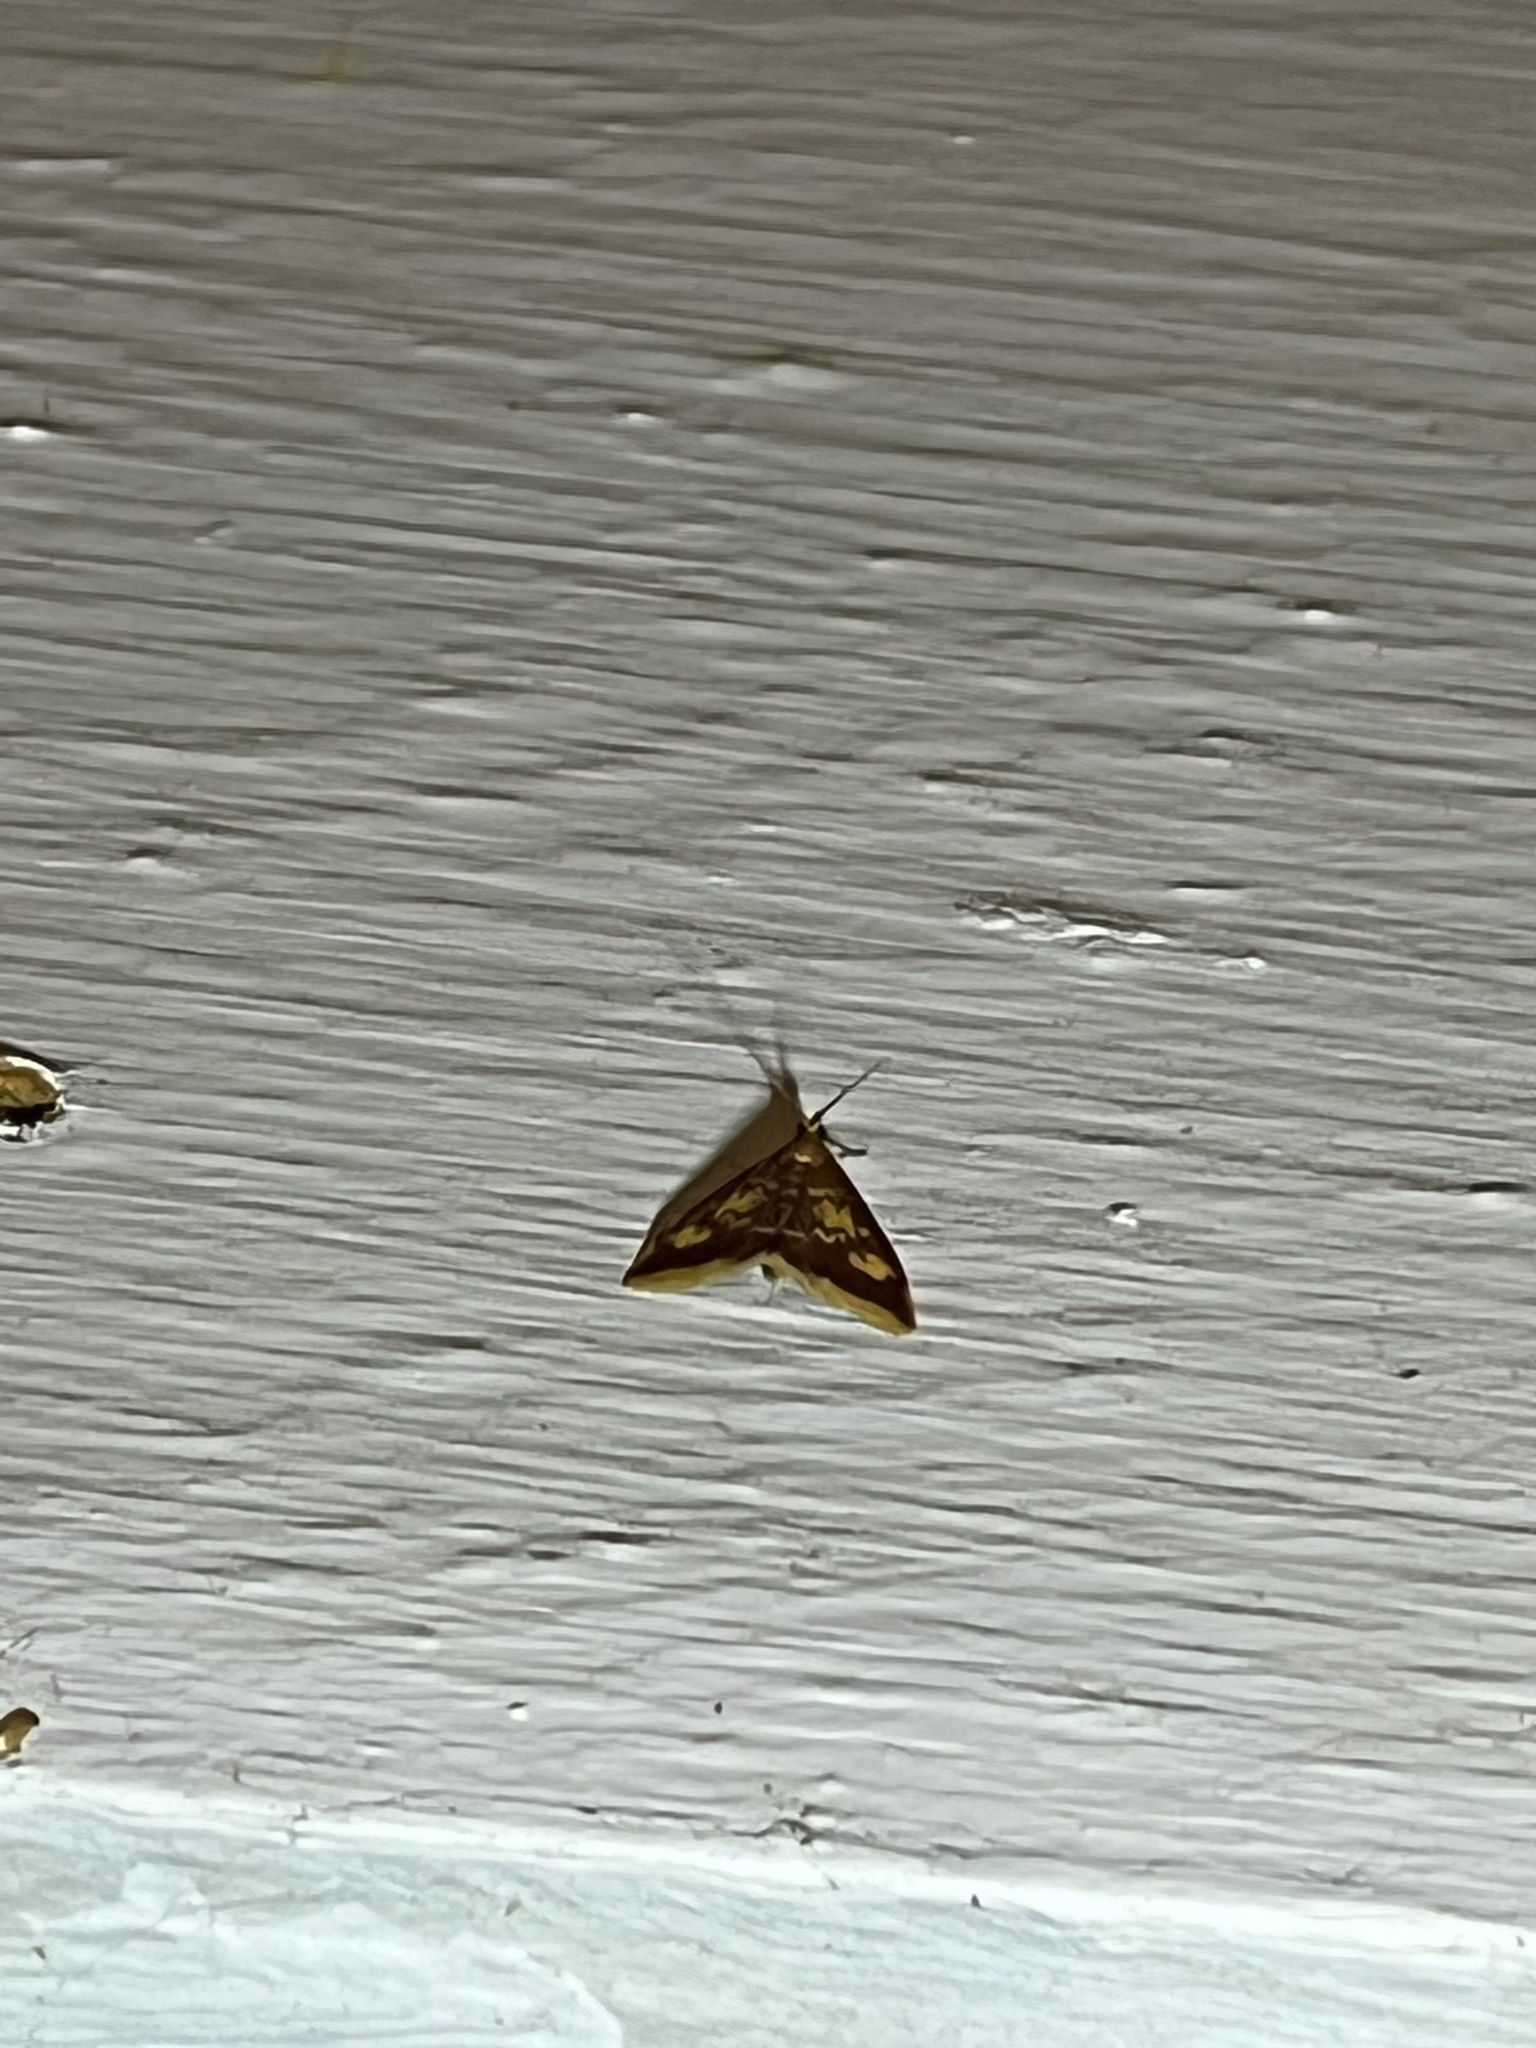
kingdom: Animalia
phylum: Arthropoda
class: Insecta
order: Lepidoptera
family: Crambidae
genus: Pyrausta
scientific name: Pyrausta acrionalis
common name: Mint-loving pyrausta moth
